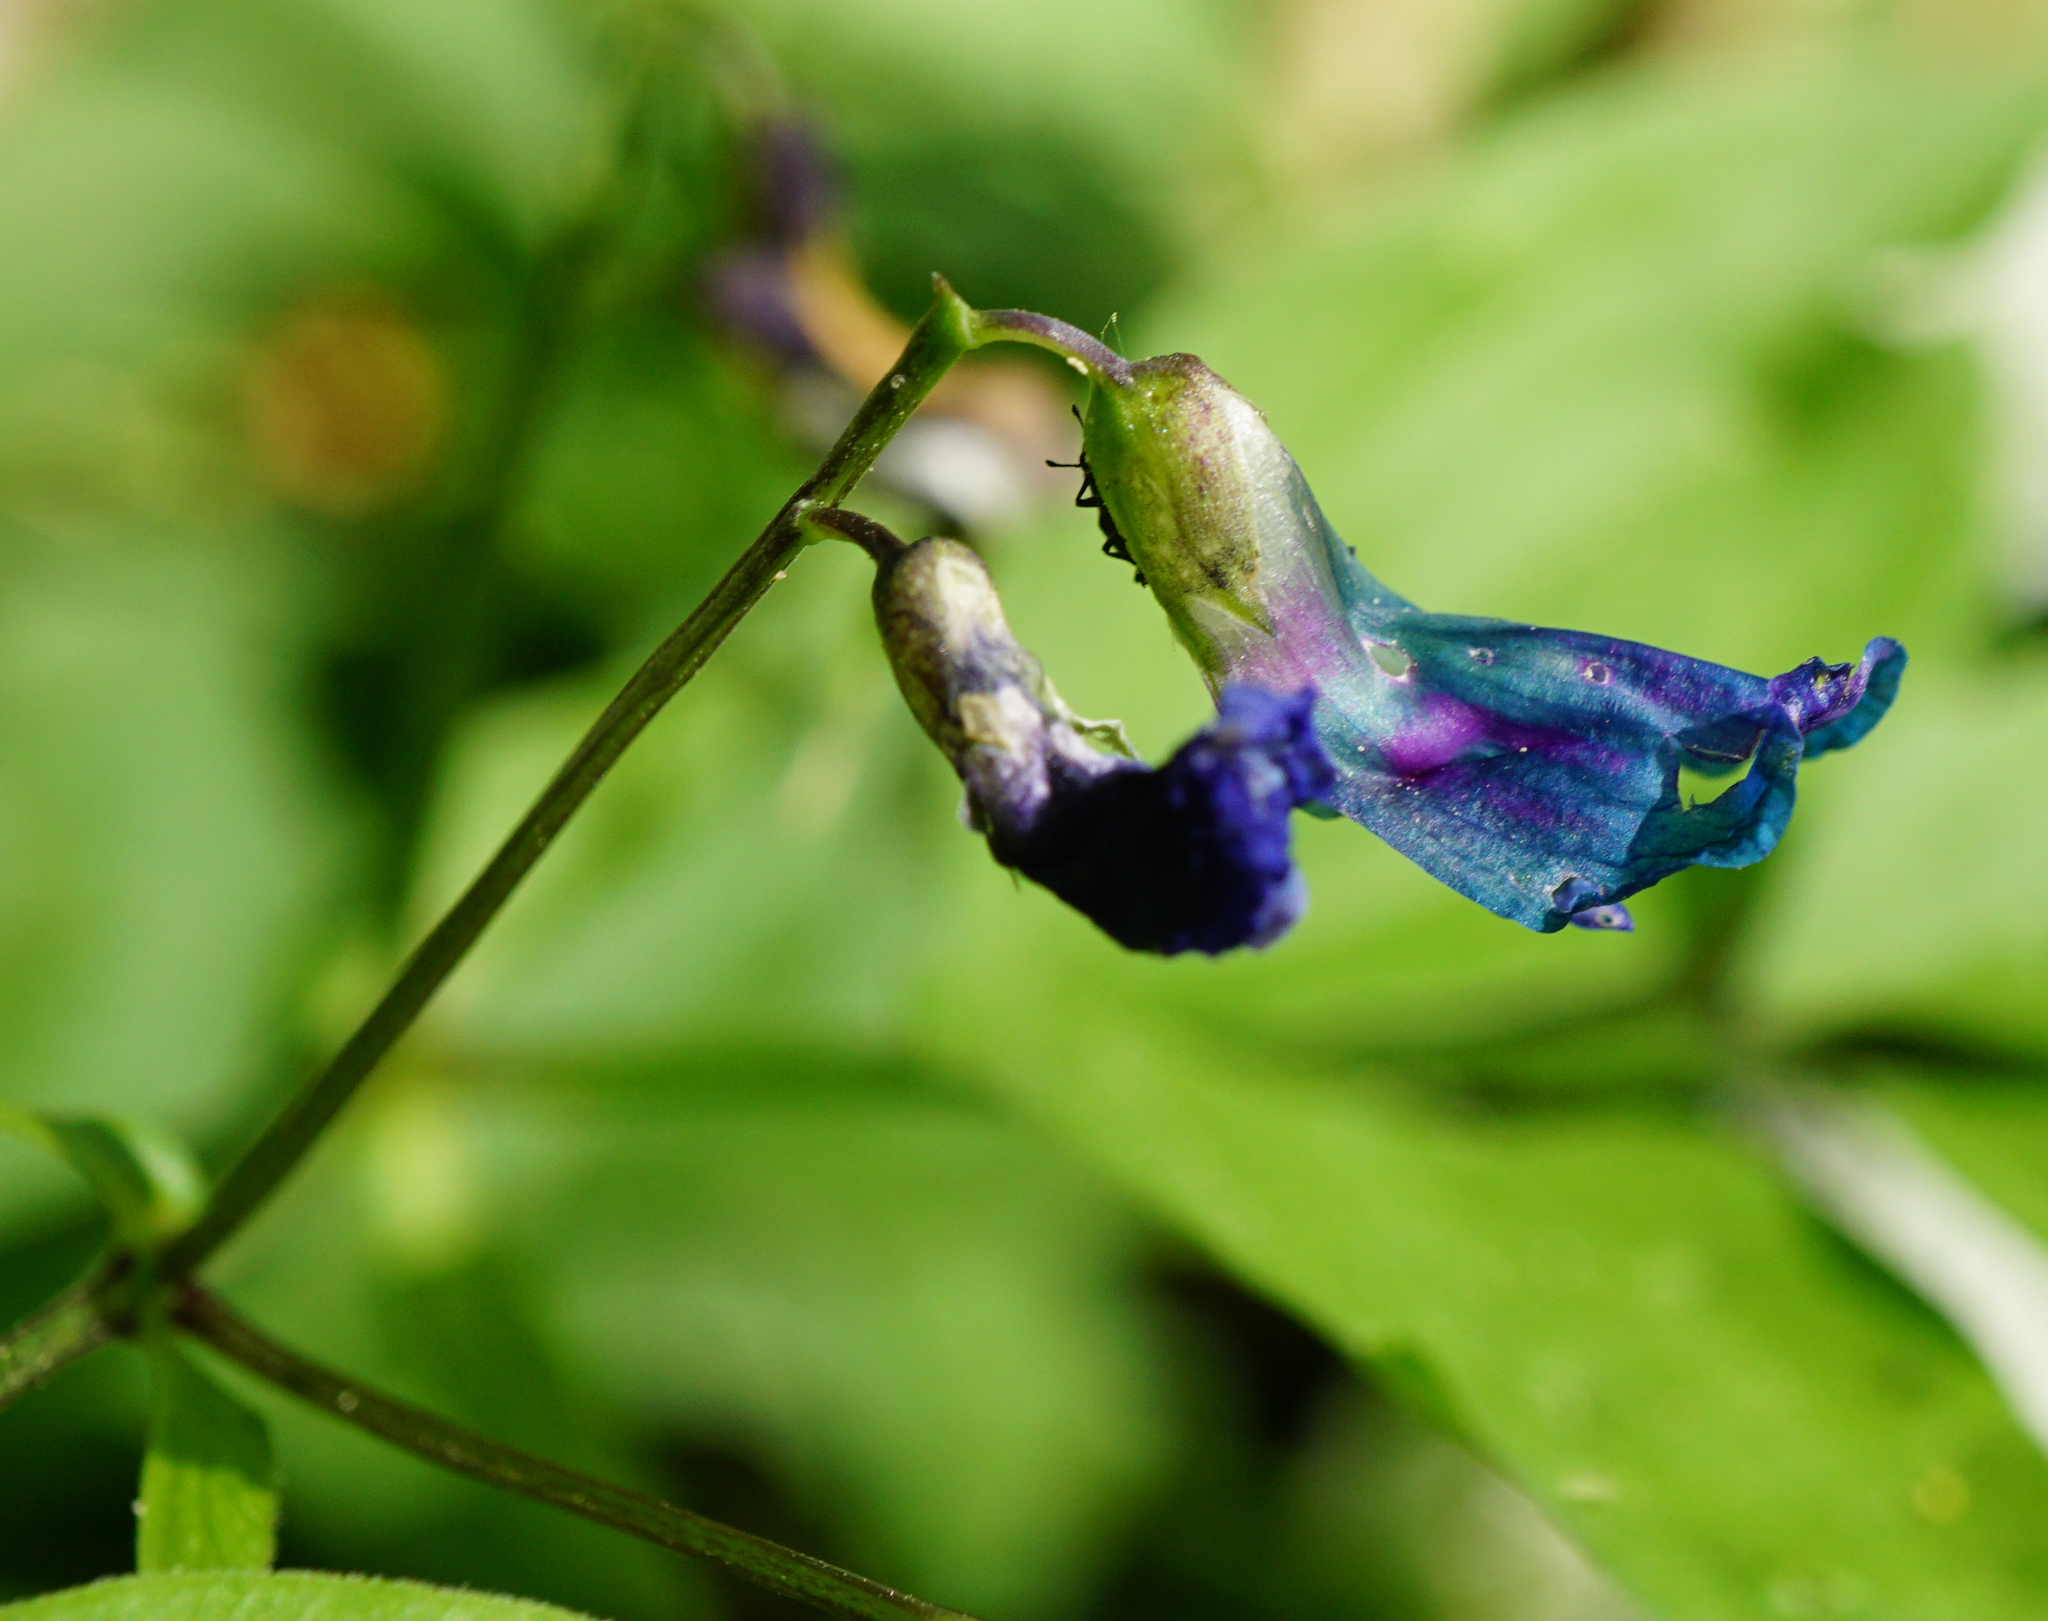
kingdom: Plantae
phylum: Tracheophyta
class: Magnoliopsida
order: Fabales
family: Fabaceae
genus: Lathyrus
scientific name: Lathyrus vernus
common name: Spring pea
